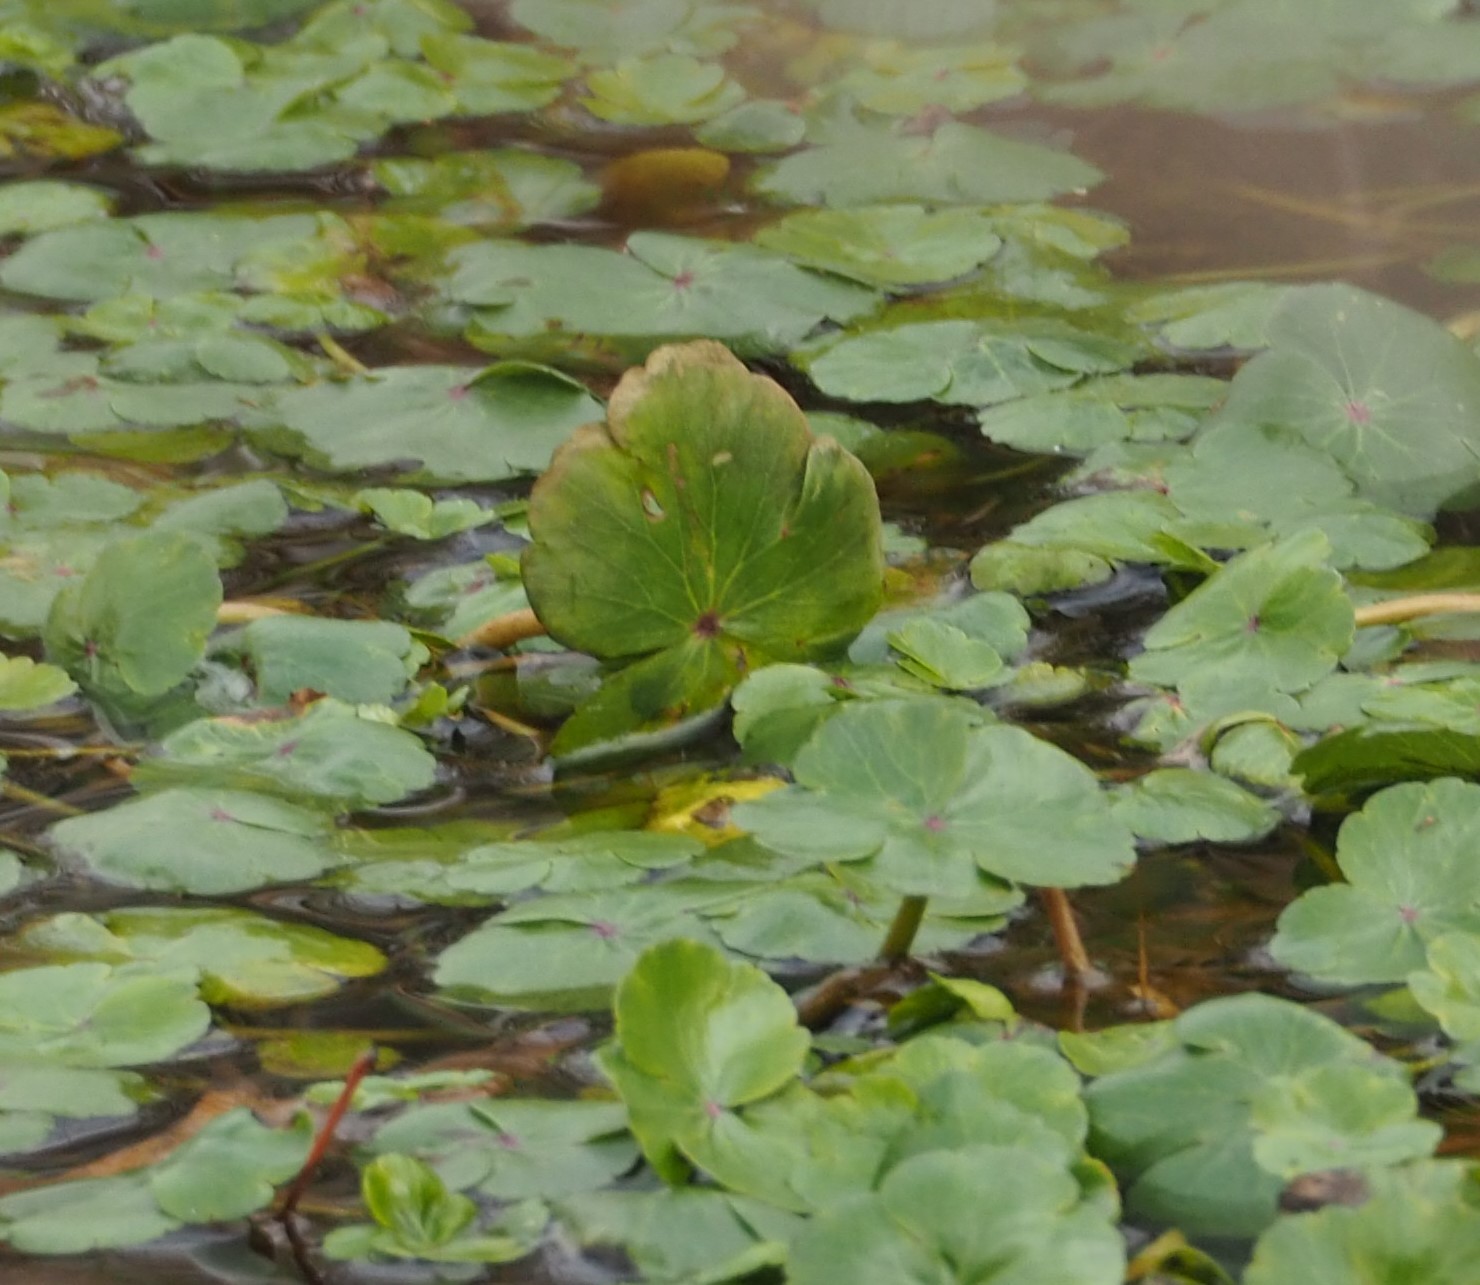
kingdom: Plantae
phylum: Tracheophyta
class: Magnoliopsida
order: Apiales
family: Araliaceae
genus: Hydrocotyle
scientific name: Hydrocotyle ranunculoides
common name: Floating pennywort
